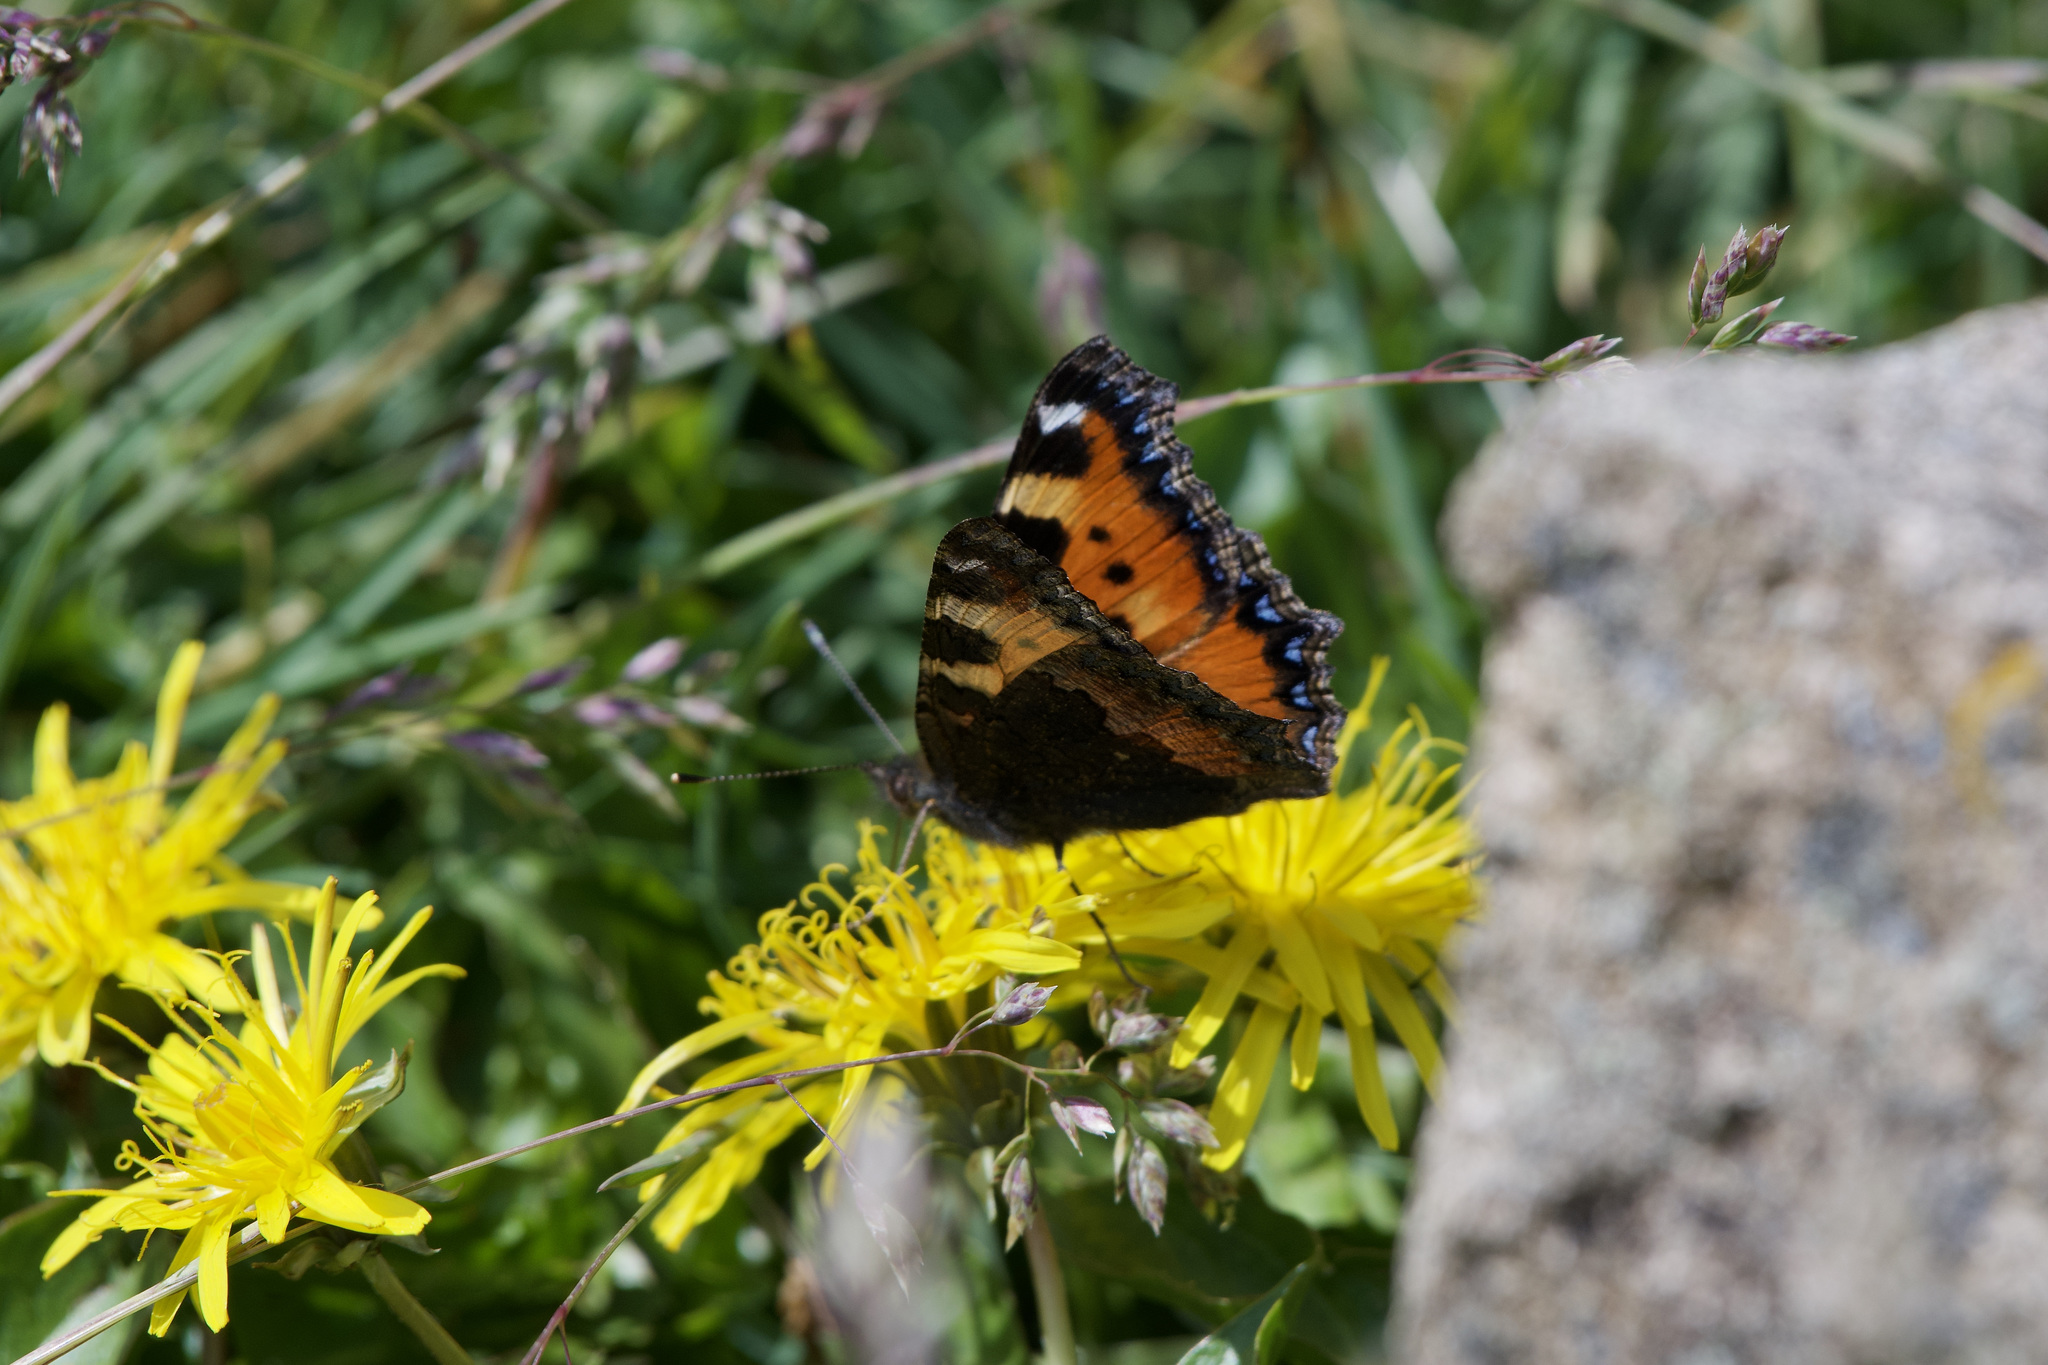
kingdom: Animalia
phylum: Arthropoda
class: Insecta
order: Lepidoptera
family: Nymphalidae
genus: Aglais
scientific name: Aglais urticae
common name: Small tortoiseshell
